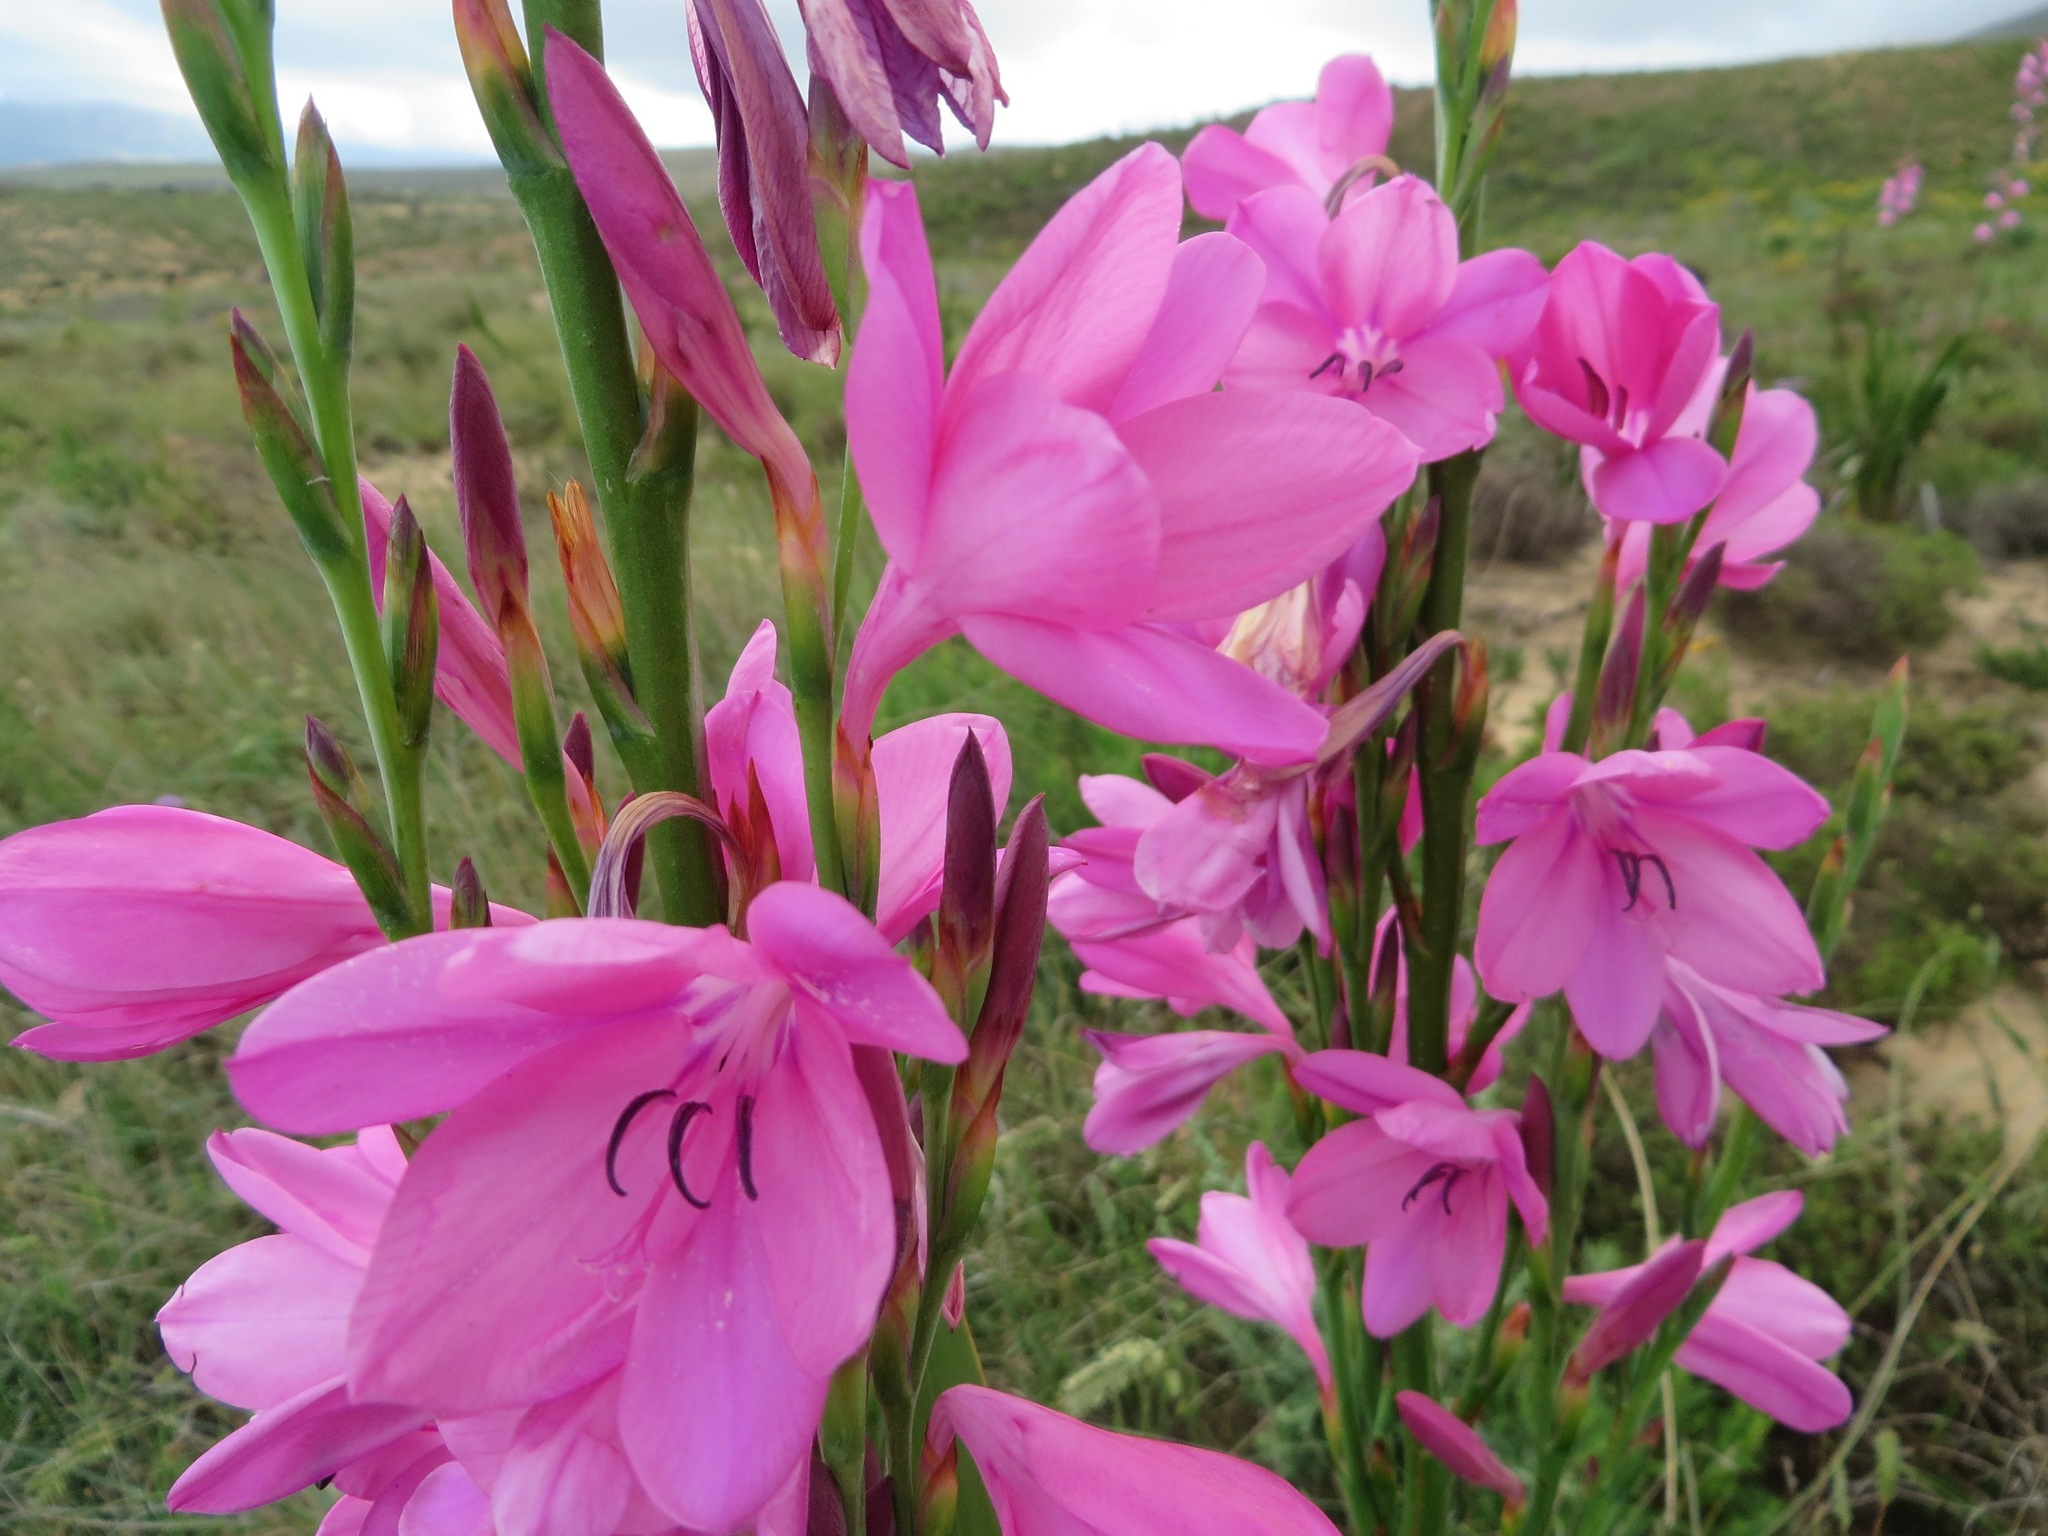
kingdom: Plantae
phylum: Tracheophyta
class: Liliopsida
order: Asparagales
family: Iridaceae
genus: Watsonia
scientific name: Watsonia borbonica
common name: Bugle-lily
